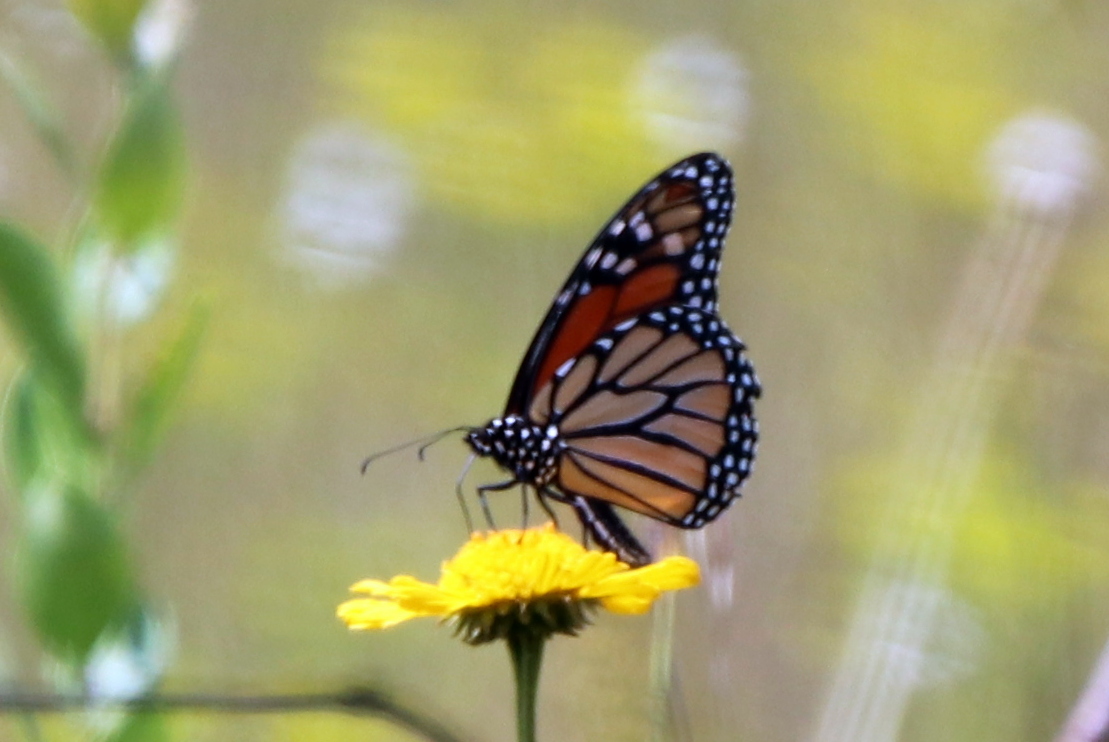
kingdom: Animalia
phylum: Arthropoda
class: Insecta
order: Lepidoptera
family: Nymphalidae
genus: Danaus
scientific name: Danaus plexippus
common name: Monarch
